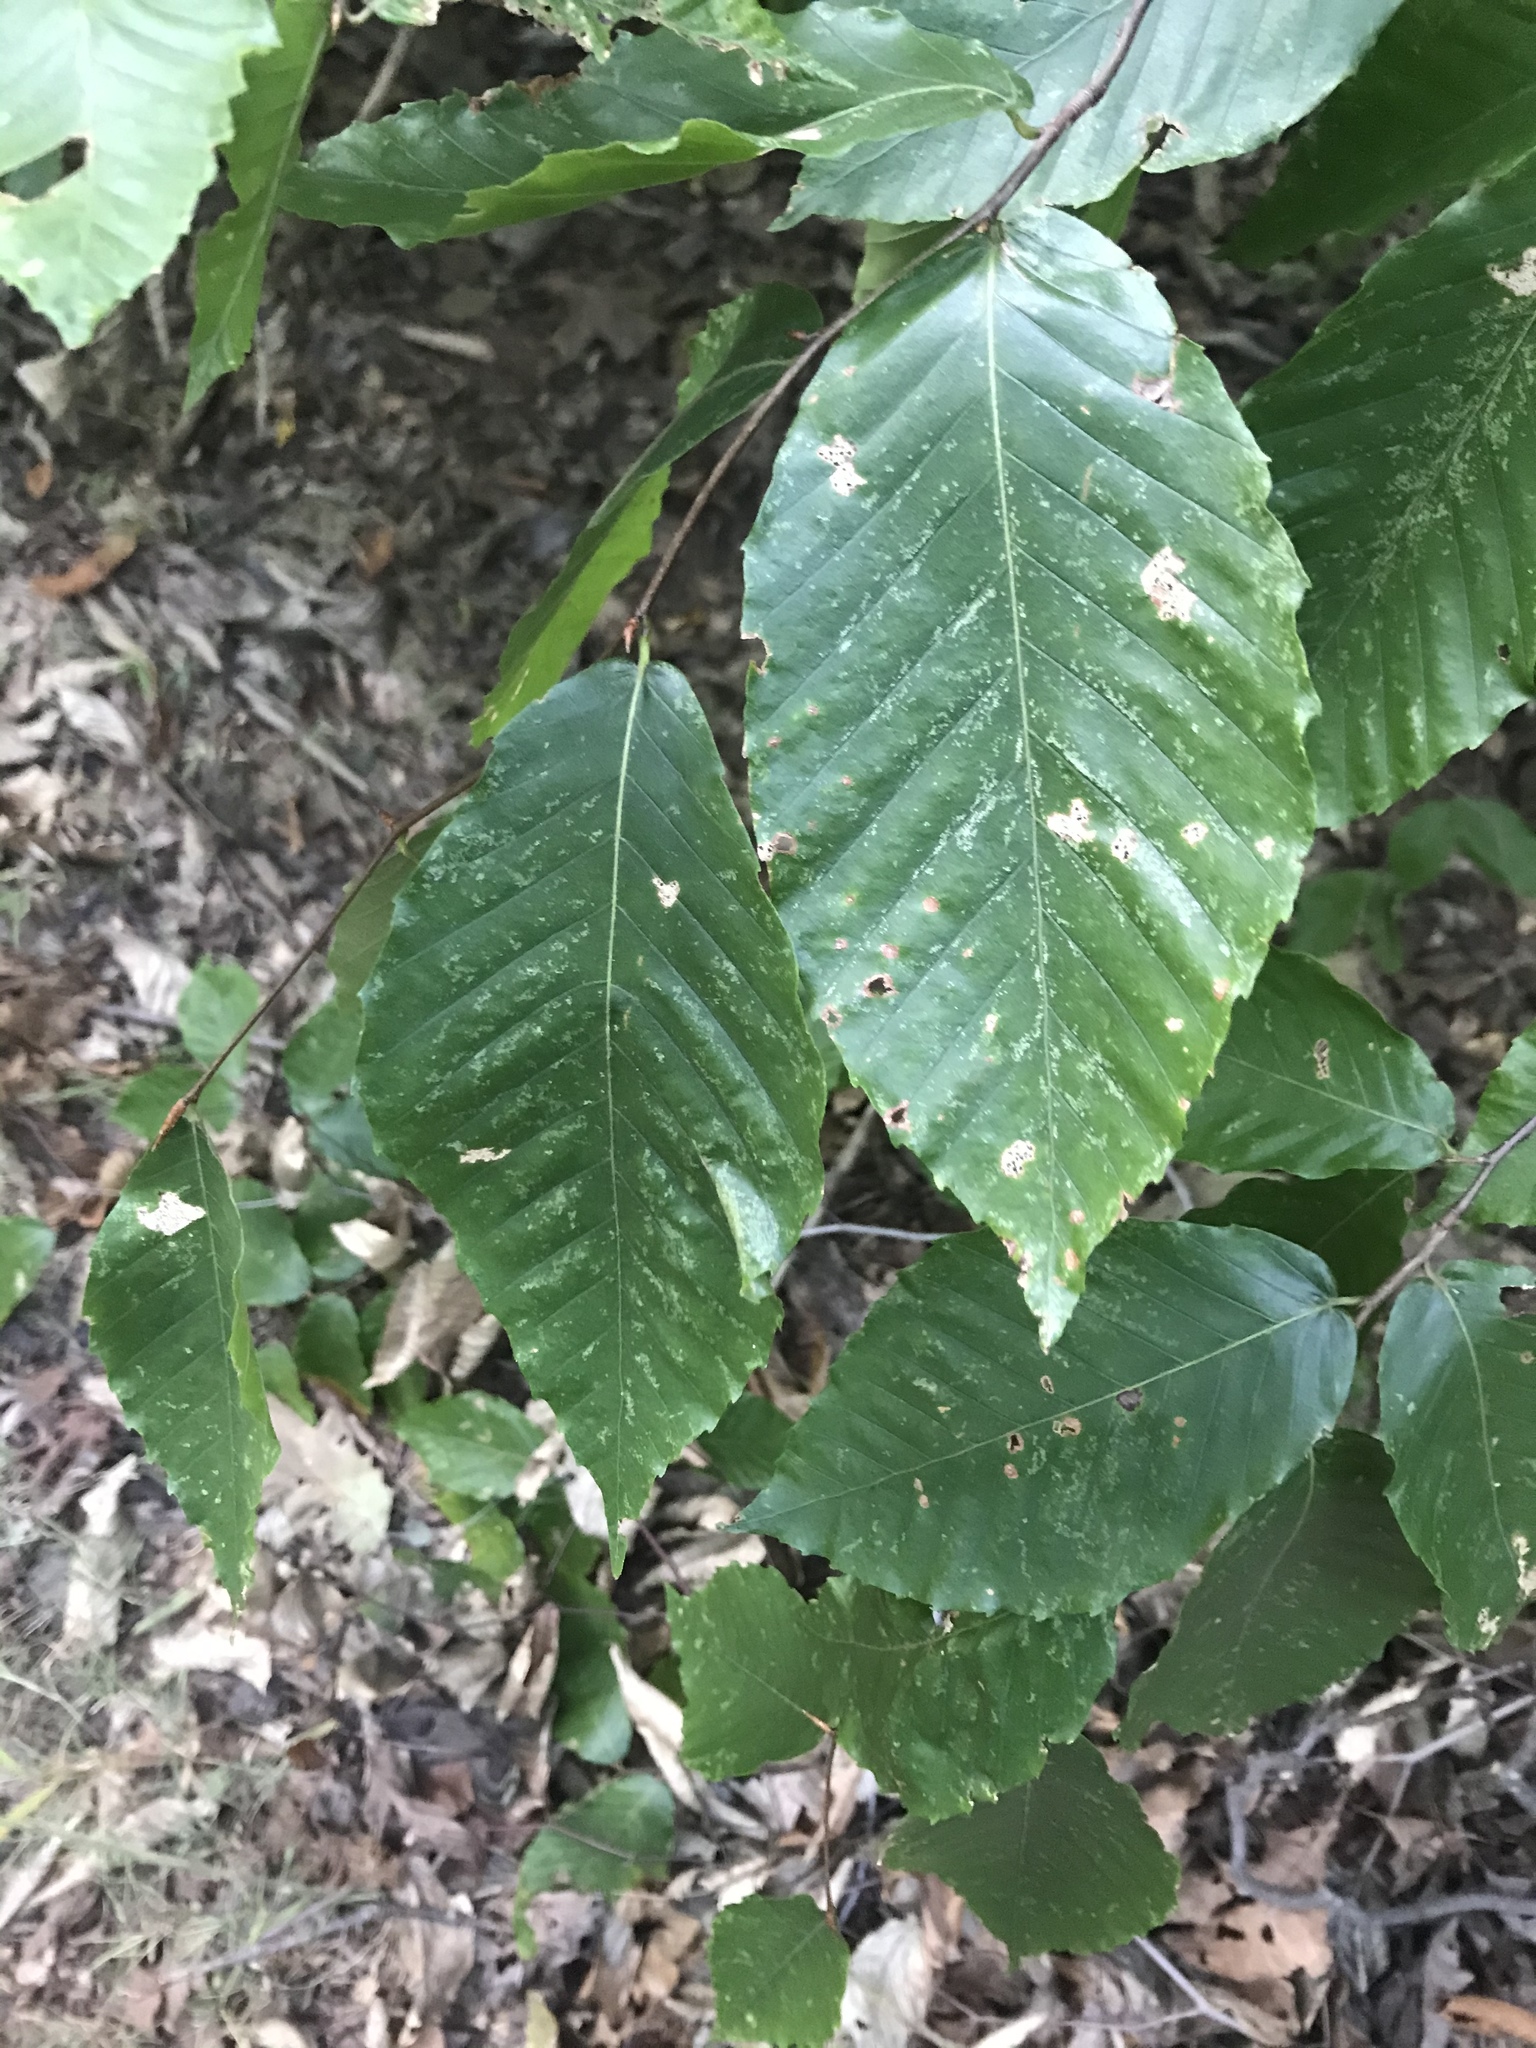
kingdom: Plantae
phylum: Tracheophyta
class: Magnoliopsida
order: Fagales
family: Fagaceae
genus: Fagus
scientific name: Fagus grandifolia
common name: American beech
